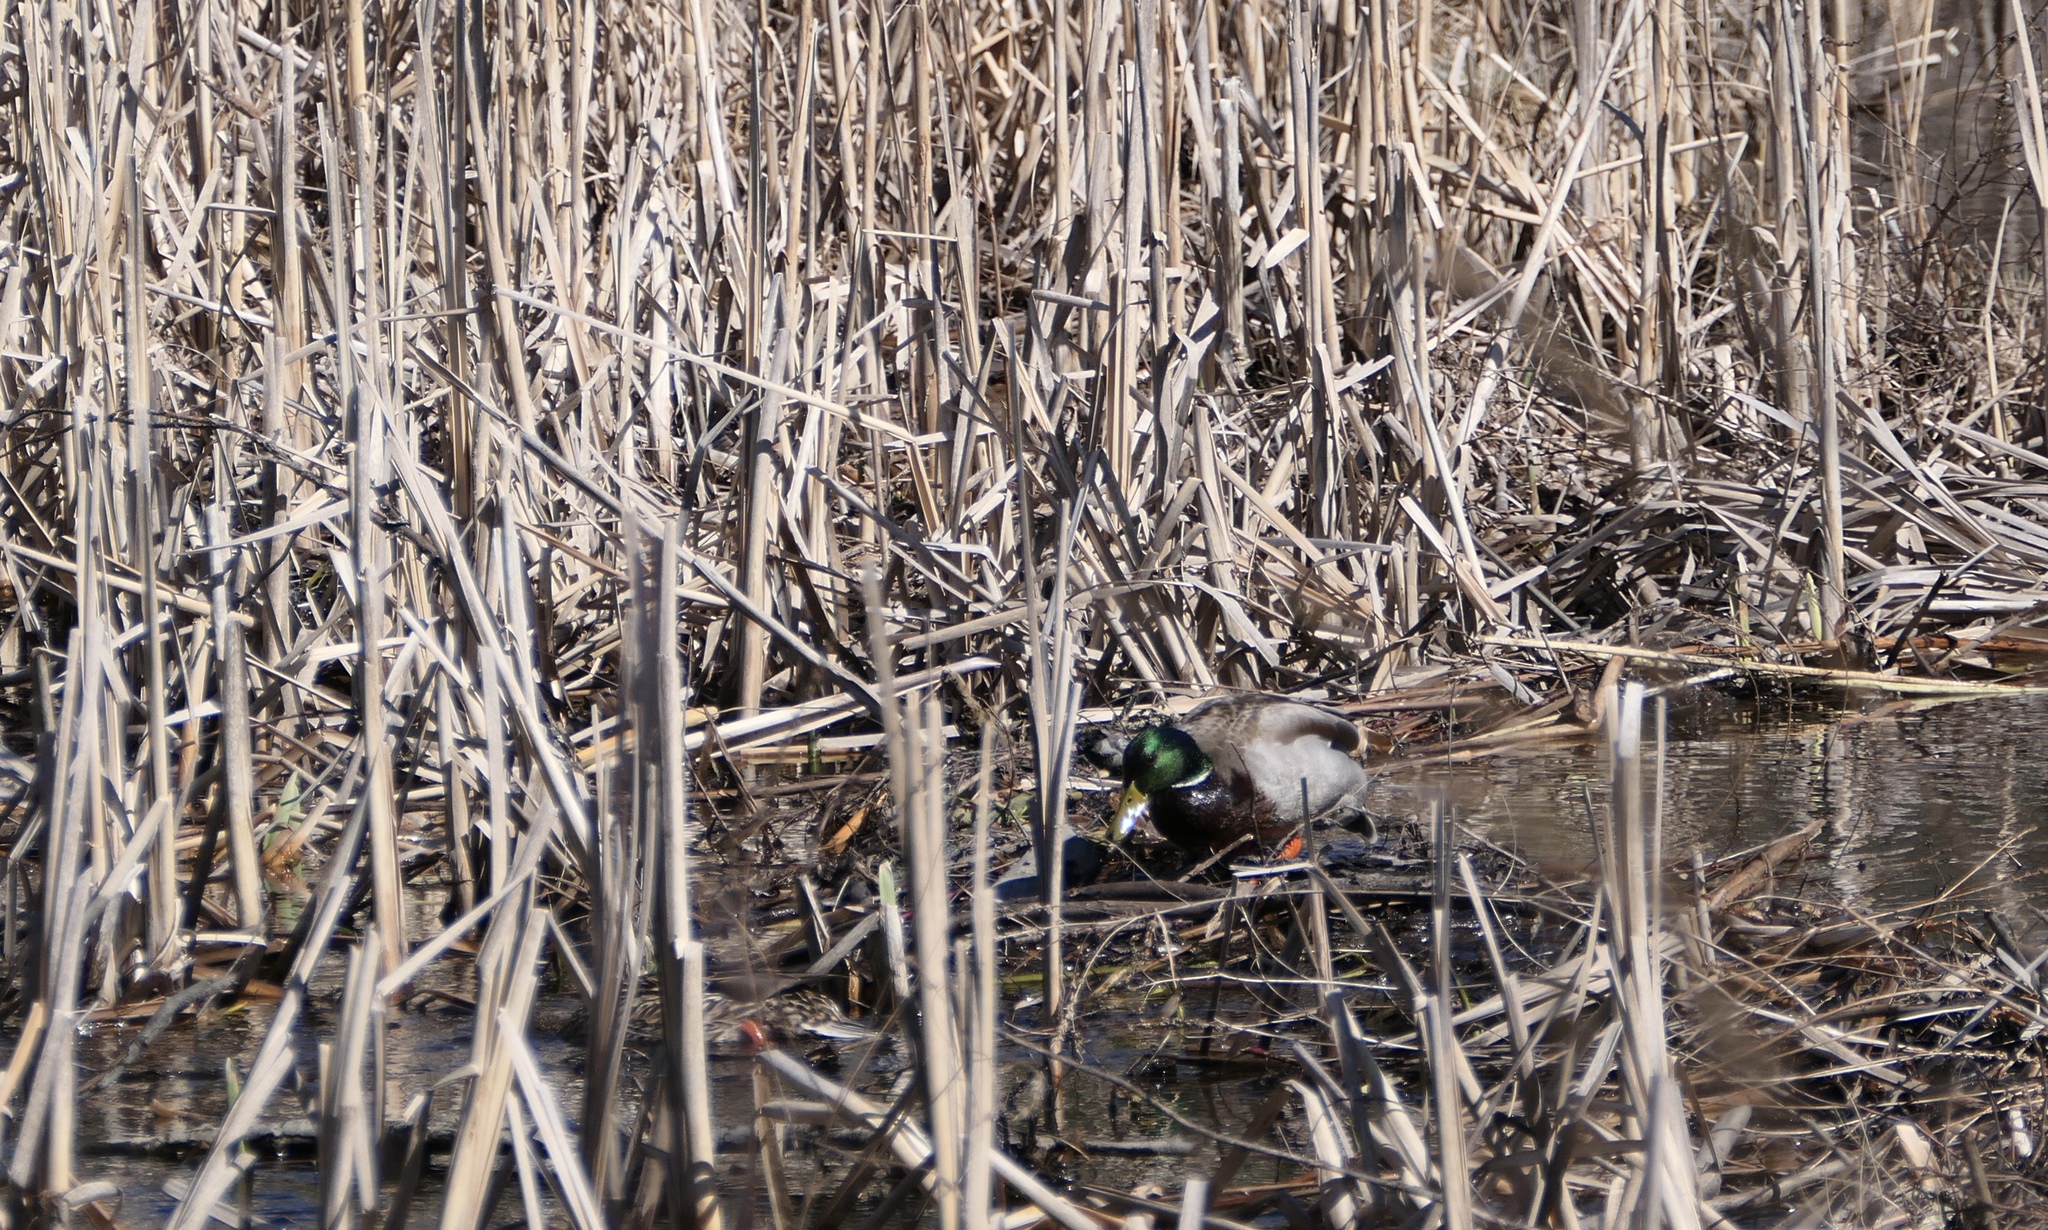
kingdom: Animalia
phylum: Chordata
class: Aves
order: Anseriformes
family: Anatidae
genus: Anas
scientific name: Anas platyrhynchos
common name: Mallard
